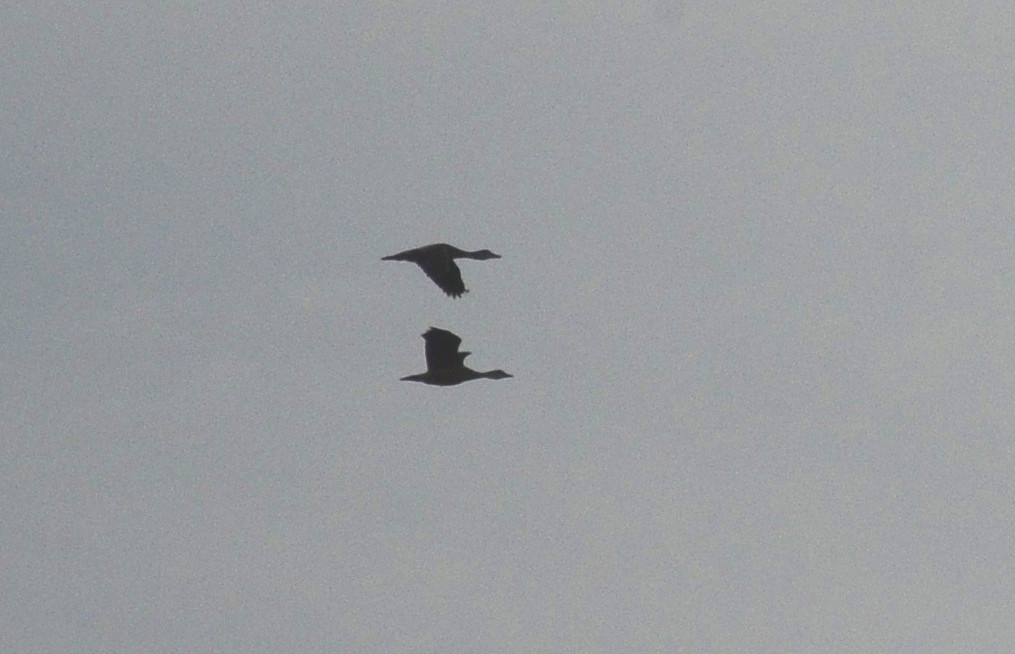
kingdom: Animalia
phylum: Chordata
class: Aves
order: Anseriformes
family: Anatidae
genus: Dendrocygna
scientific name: Dendrocygna javanica
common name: Lesser whistling-duck
